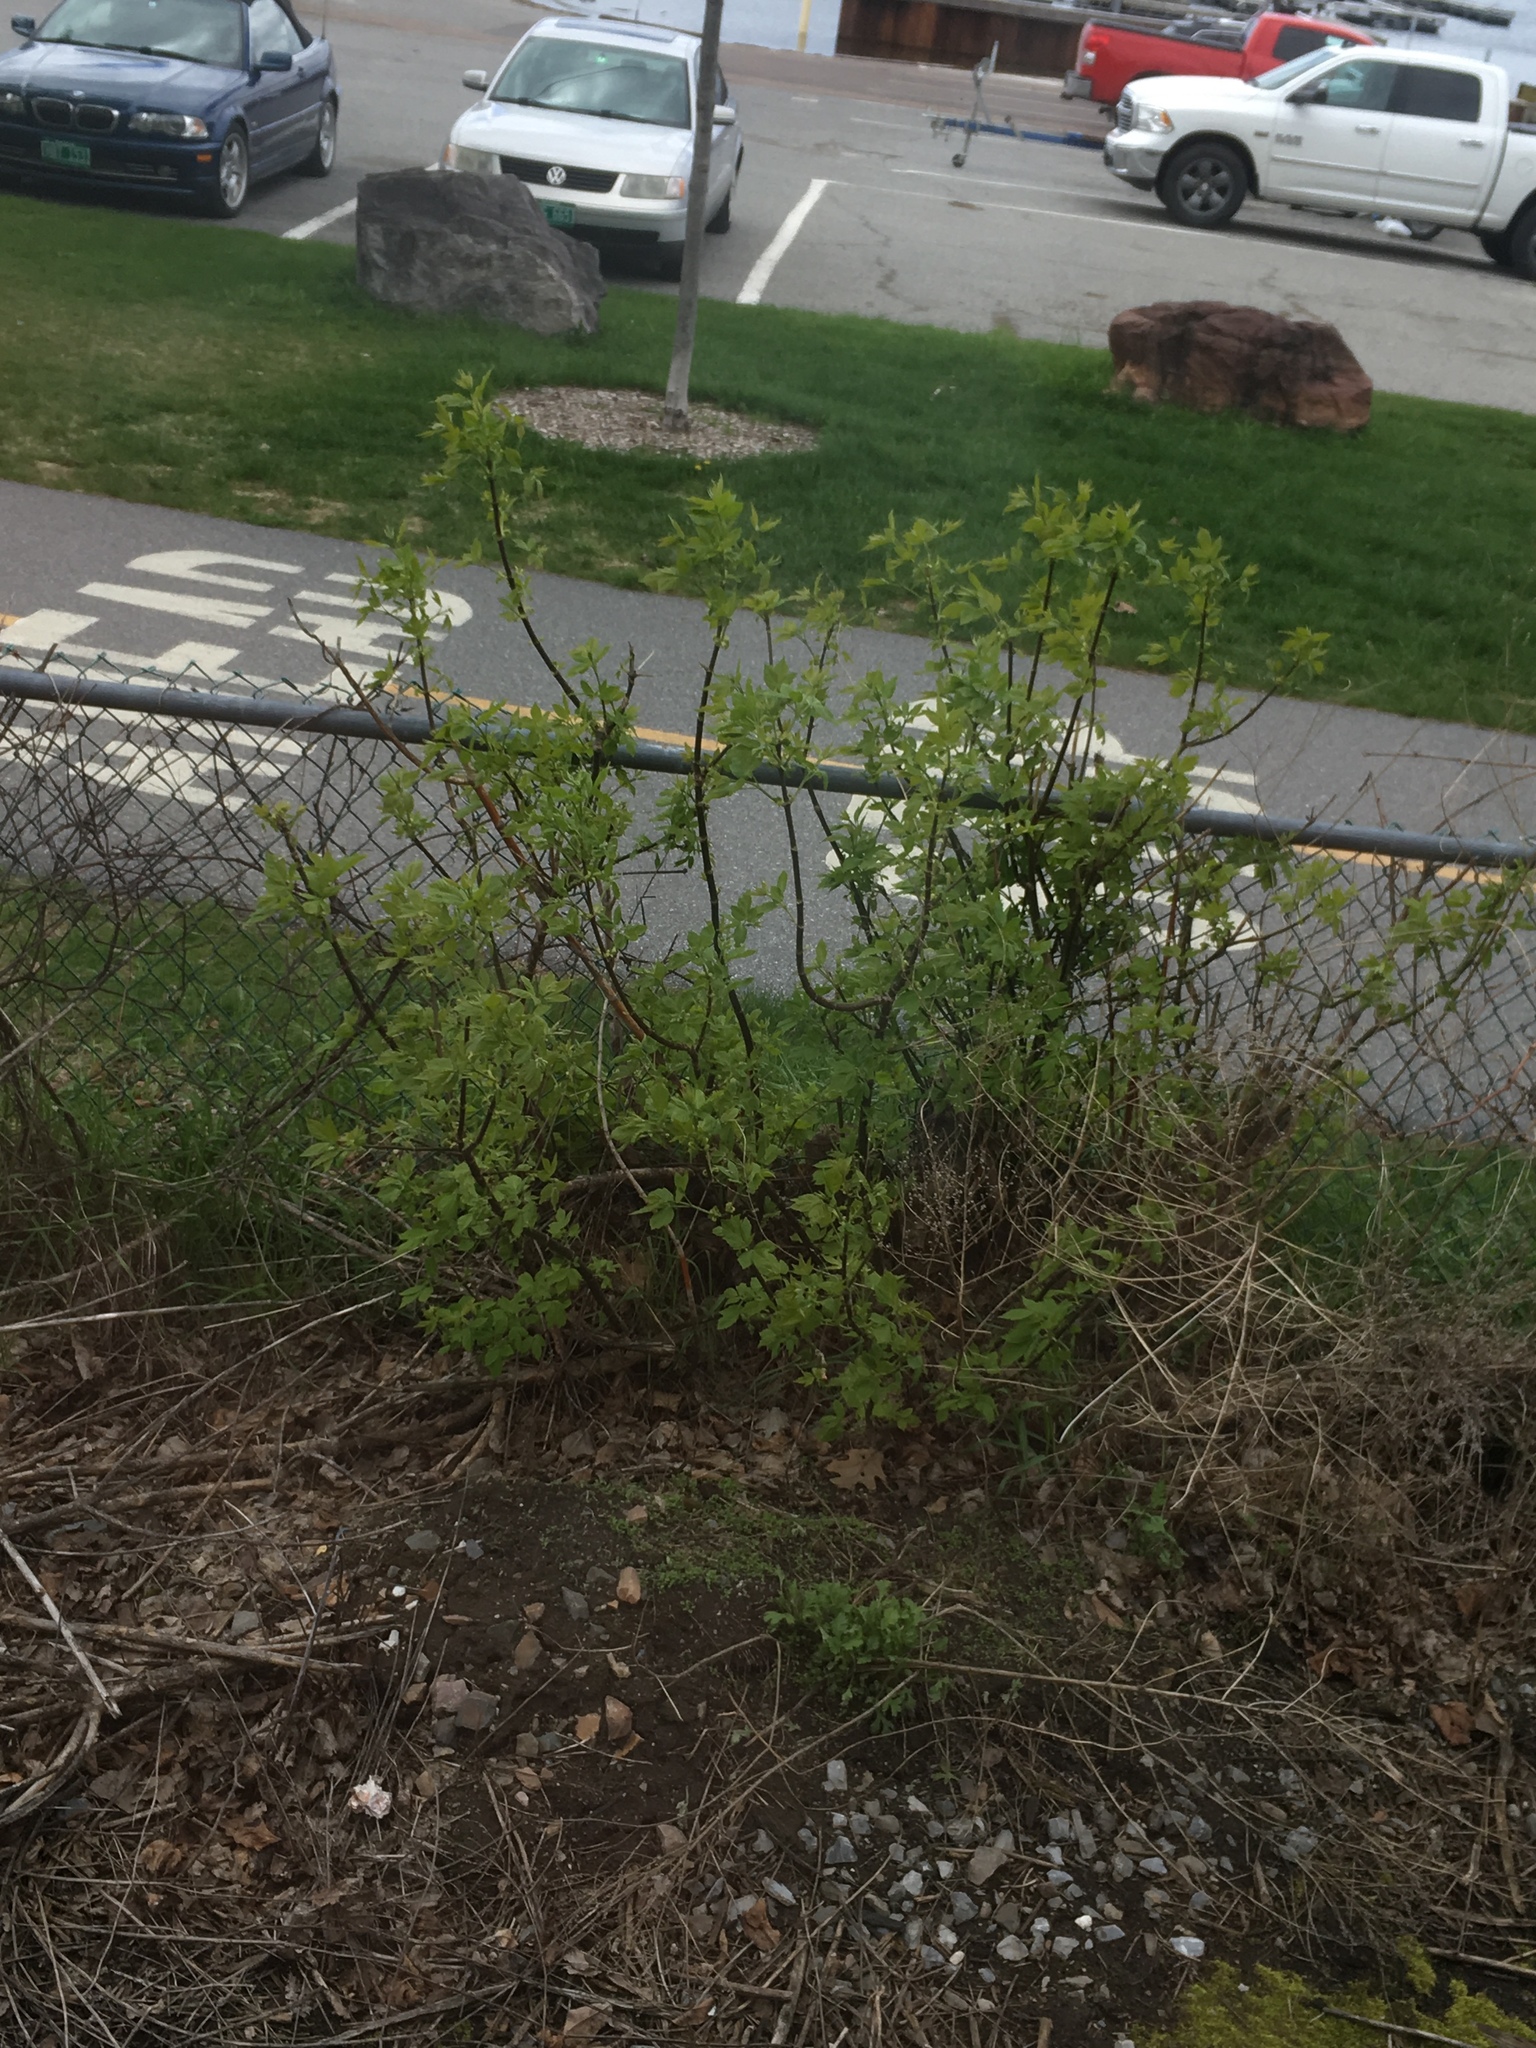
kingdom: Plantae
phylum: Tracheophyta
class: Magnoliopsida
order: Sapindales
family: Sapindaceae
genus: Acer
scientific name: Acer negundo
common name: Ashleaf maple
